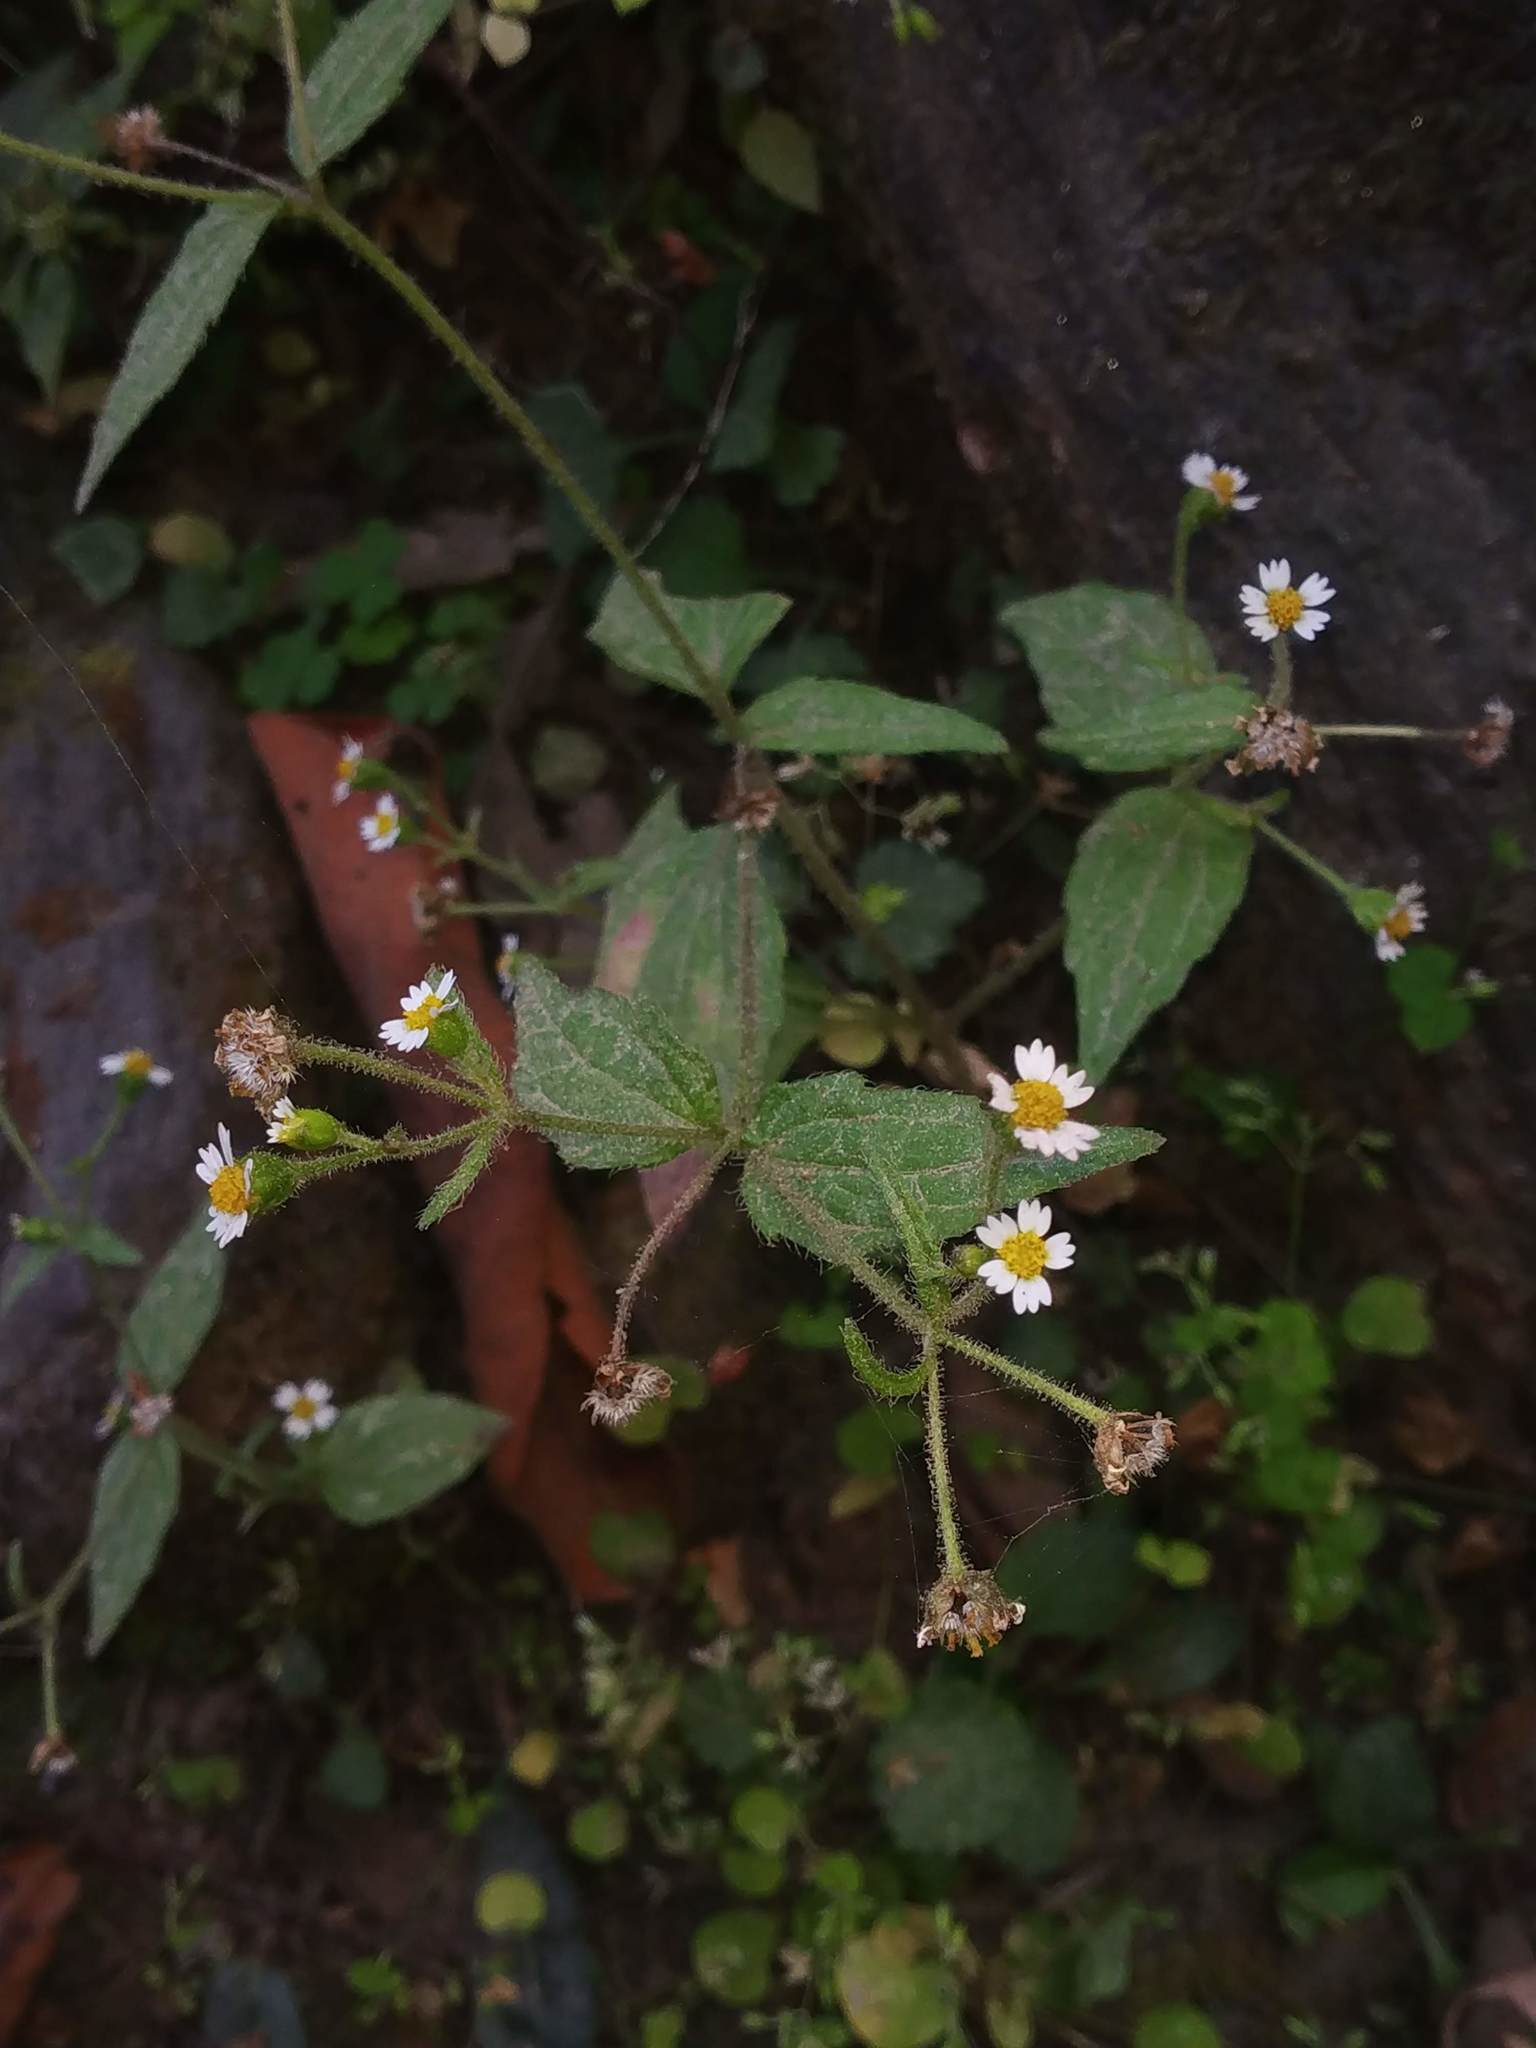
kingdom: Plantae
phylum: Tracheophyta
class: Magnoliopsida
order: Asterales
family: Asteraceae
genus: Galinsoga
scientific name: Galinsoga quadriradiata
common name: Shaggy soldier
